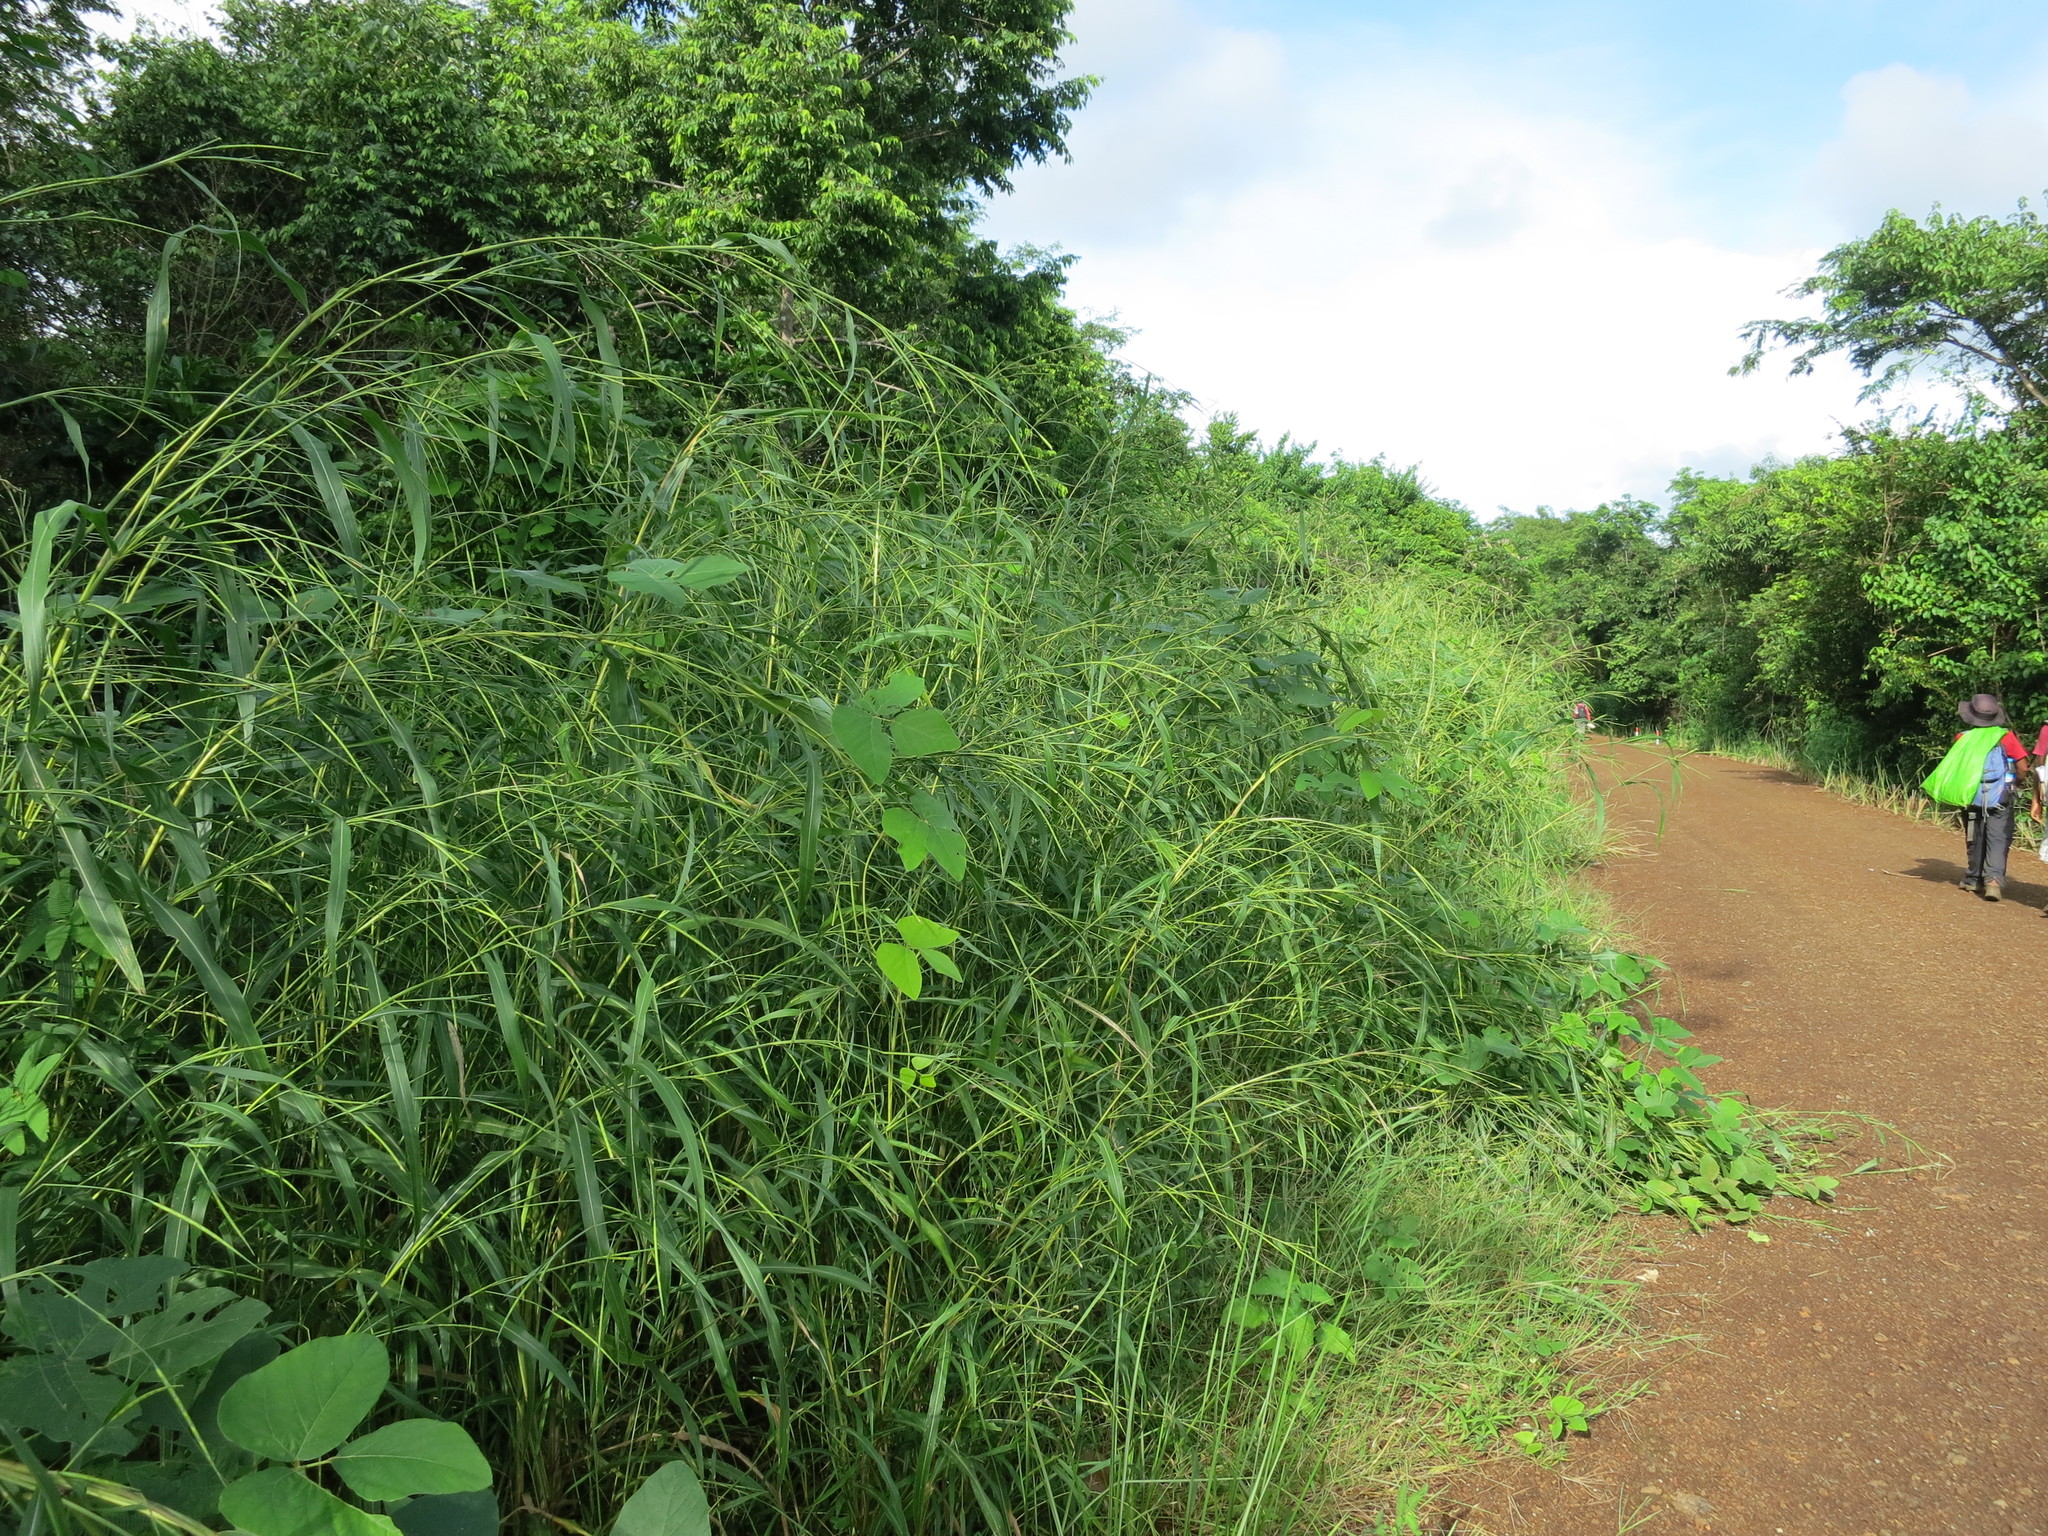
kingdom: Plantae
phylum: Tracheophyta
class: Liliopsida
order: Poales
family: Poaceae
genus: Rottboellia
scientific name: Rottboellia cochinchinensis
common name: Itchgrass
